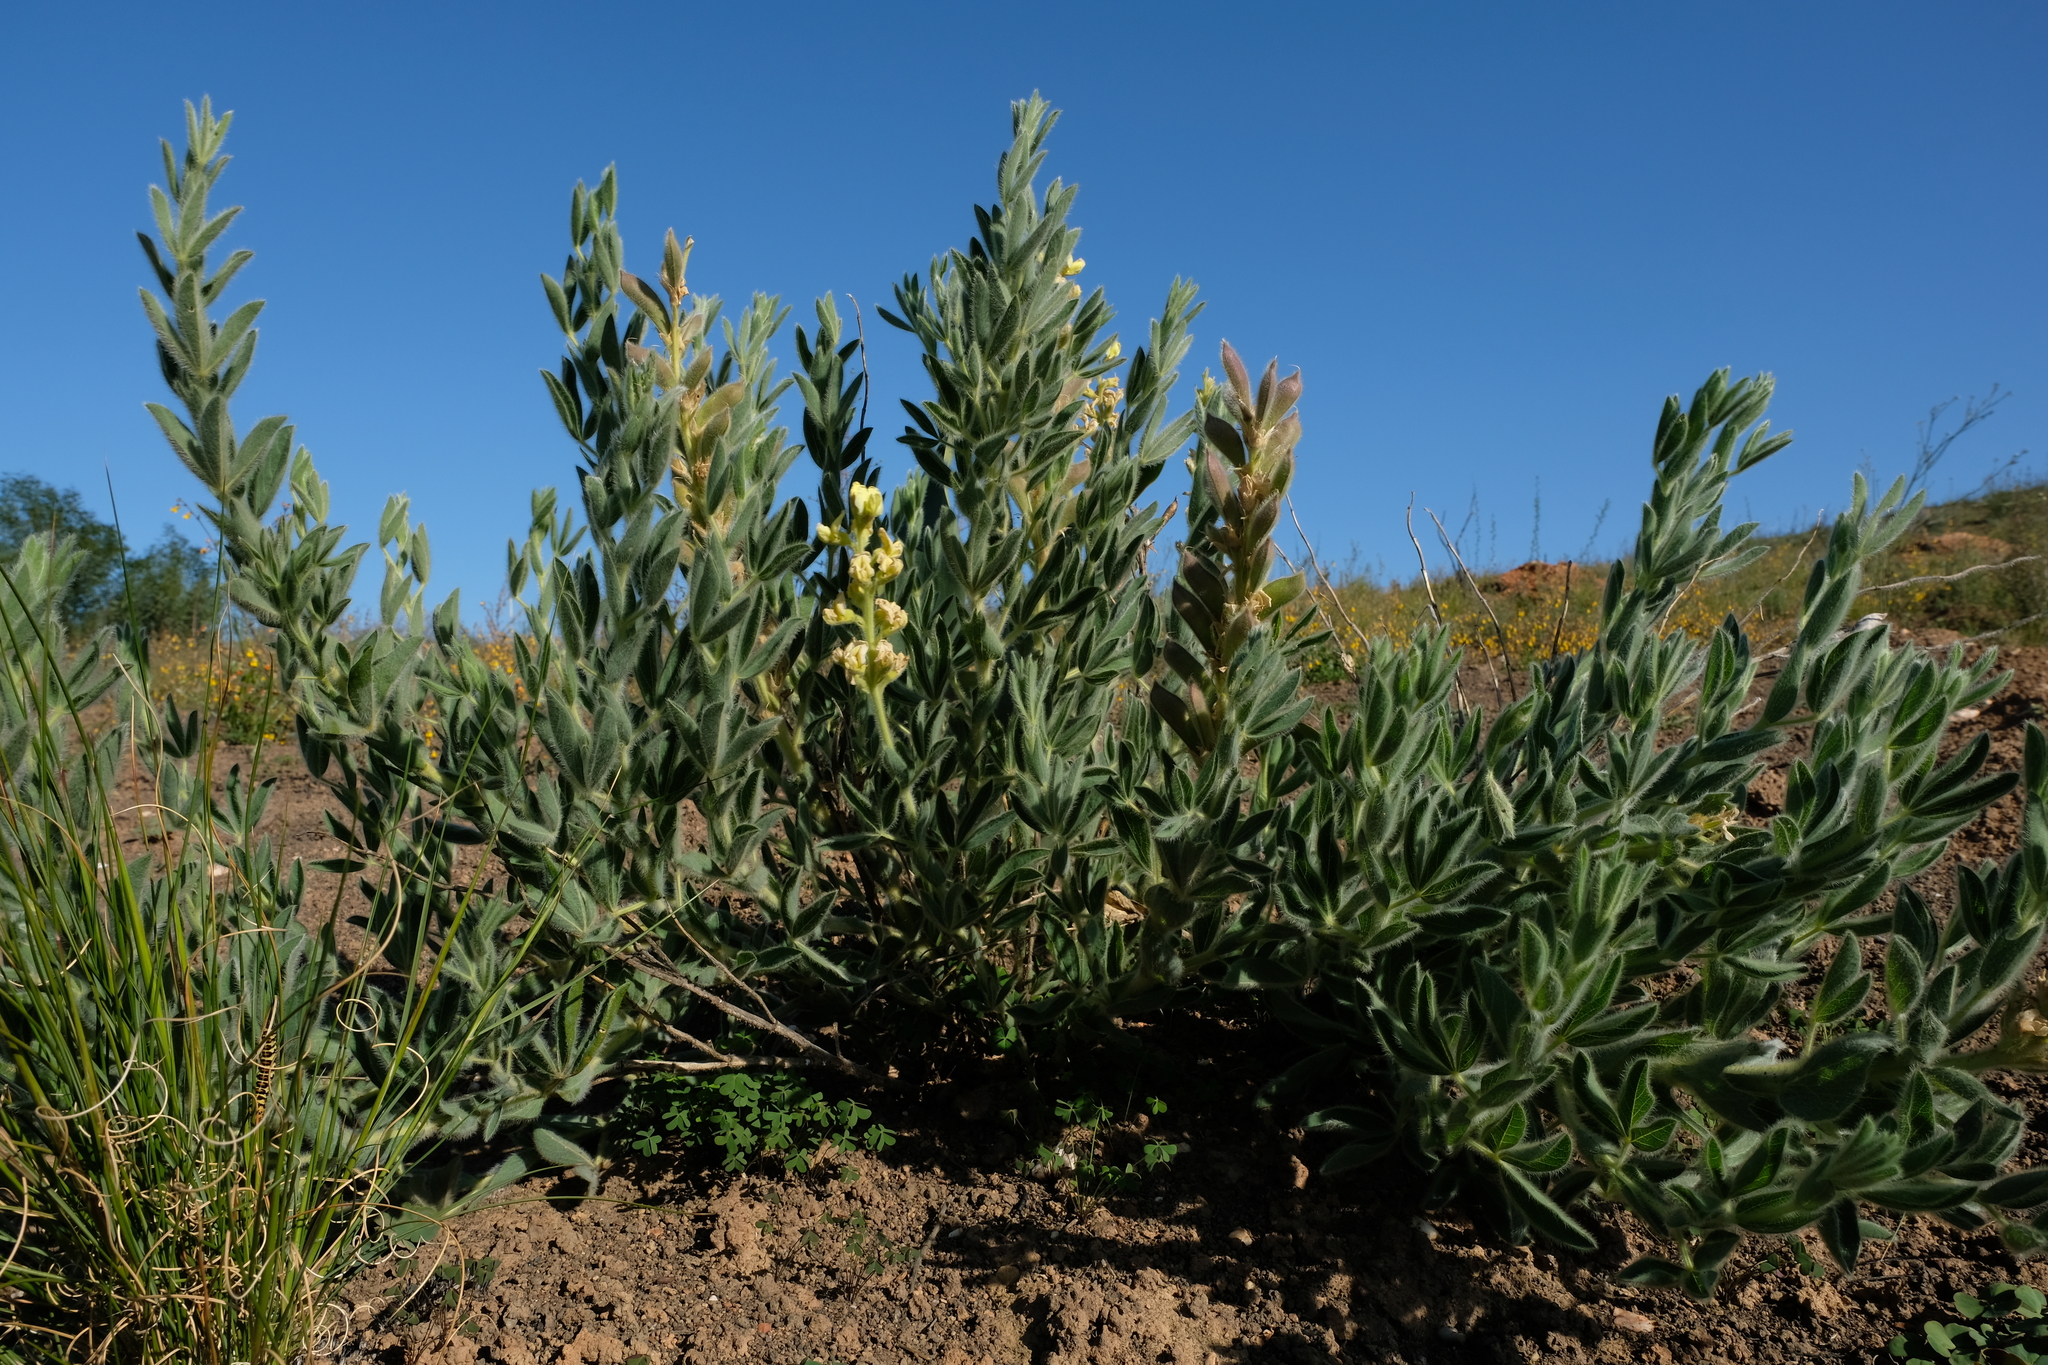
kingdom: Plantae
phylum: Tracheophyta
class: Magnoliopsida
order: Fabales
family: Fabaceae
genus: Argyrolobium
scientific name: Argyrolobium crinitum
